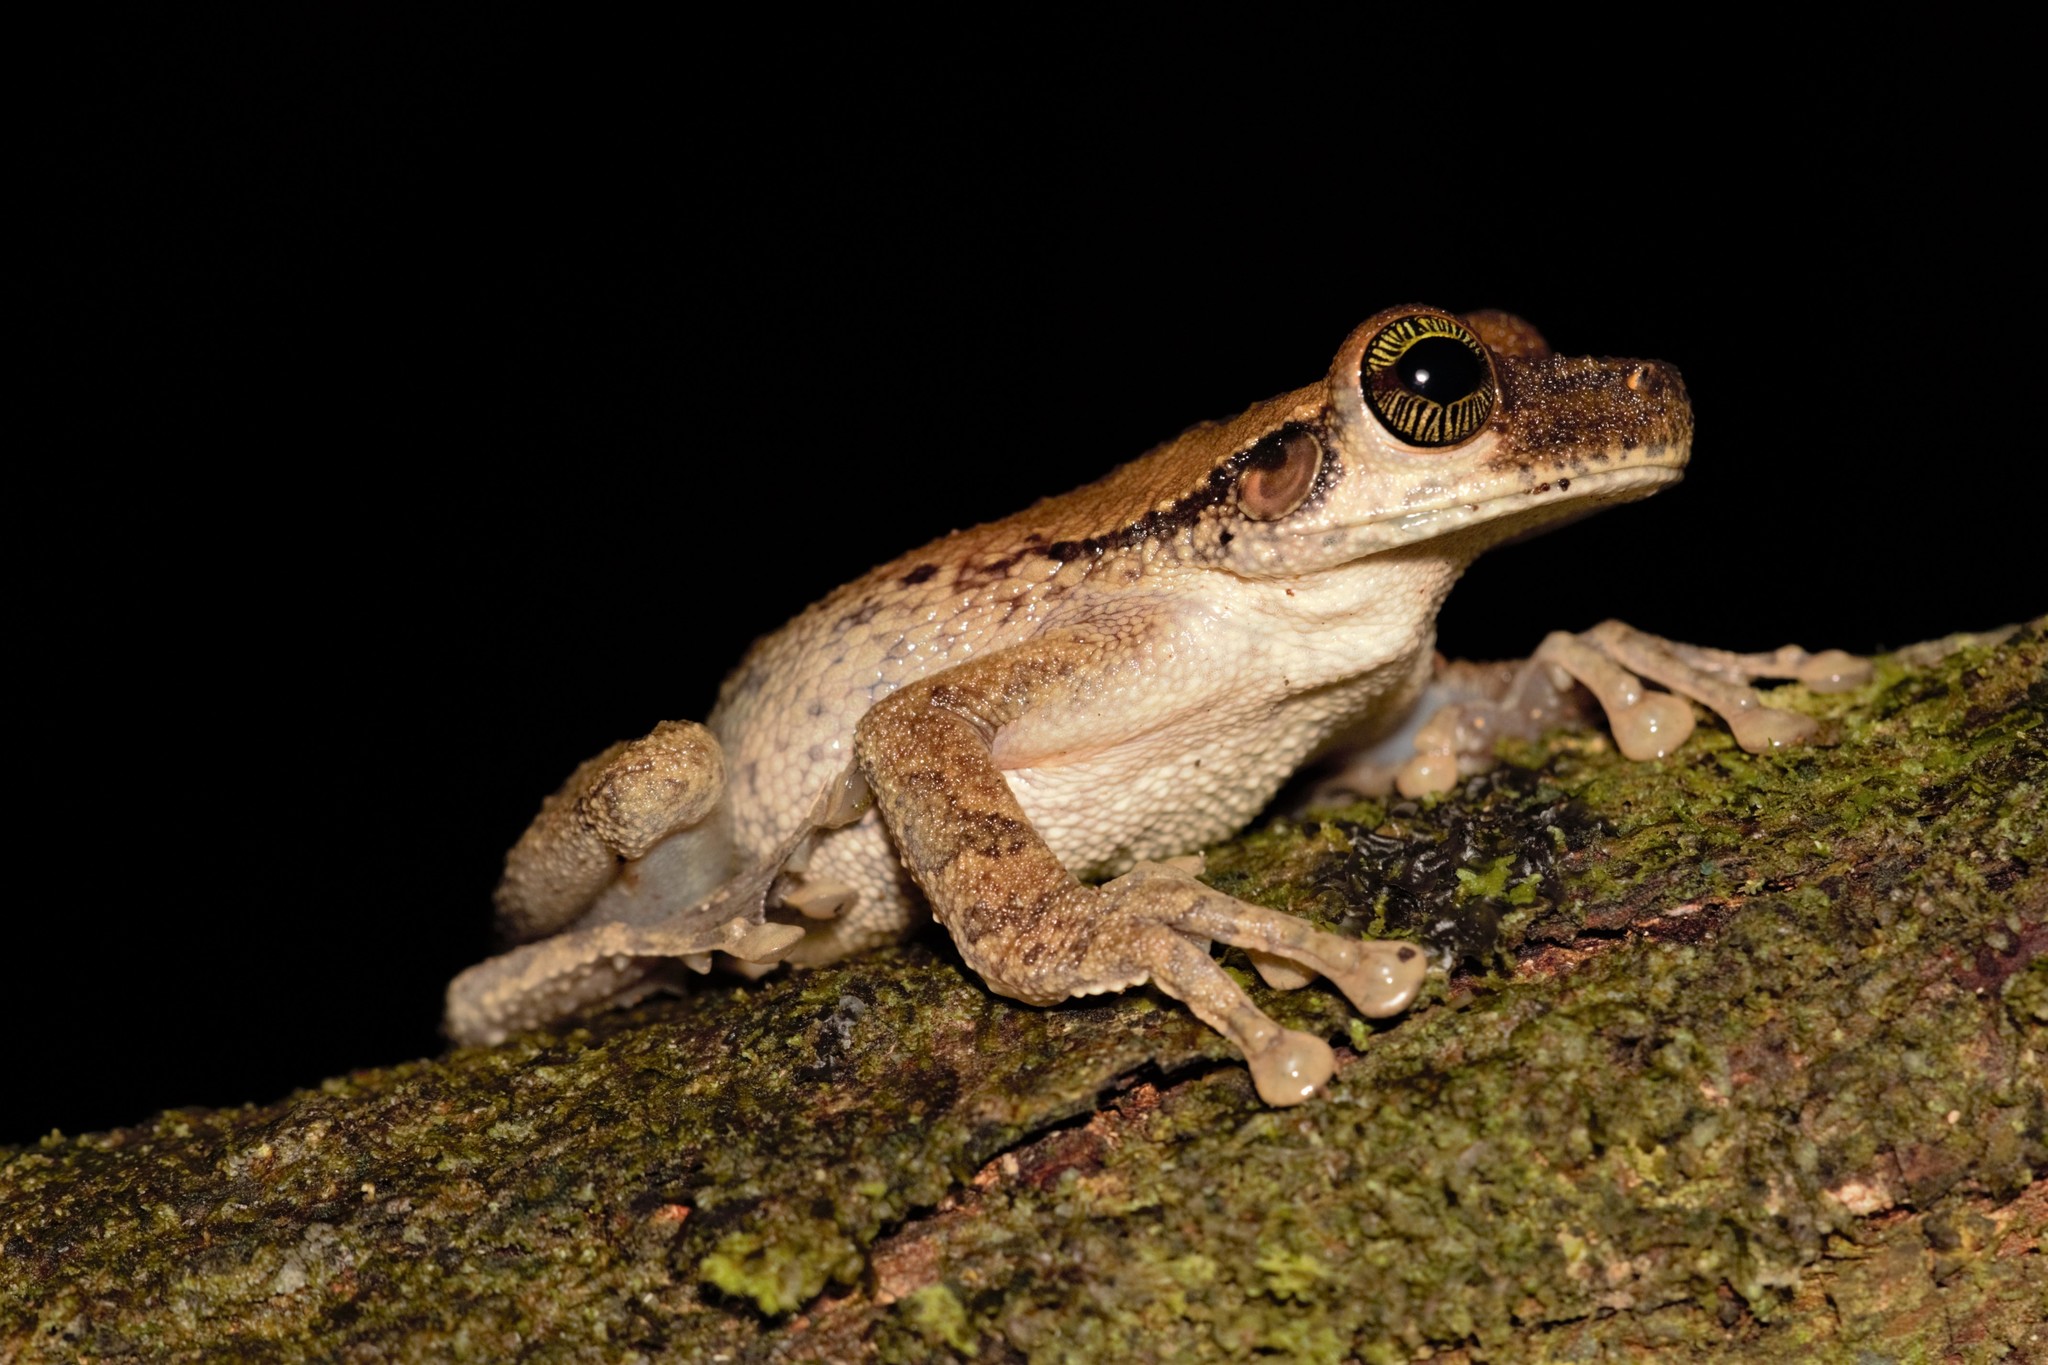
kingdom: Animalia
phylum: Chordata
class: Amphibia
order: Anura
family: Hylidae
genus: Osteocephalus
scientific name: Osteocephalus taurinus
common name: Manaus slender-legged treefrog
